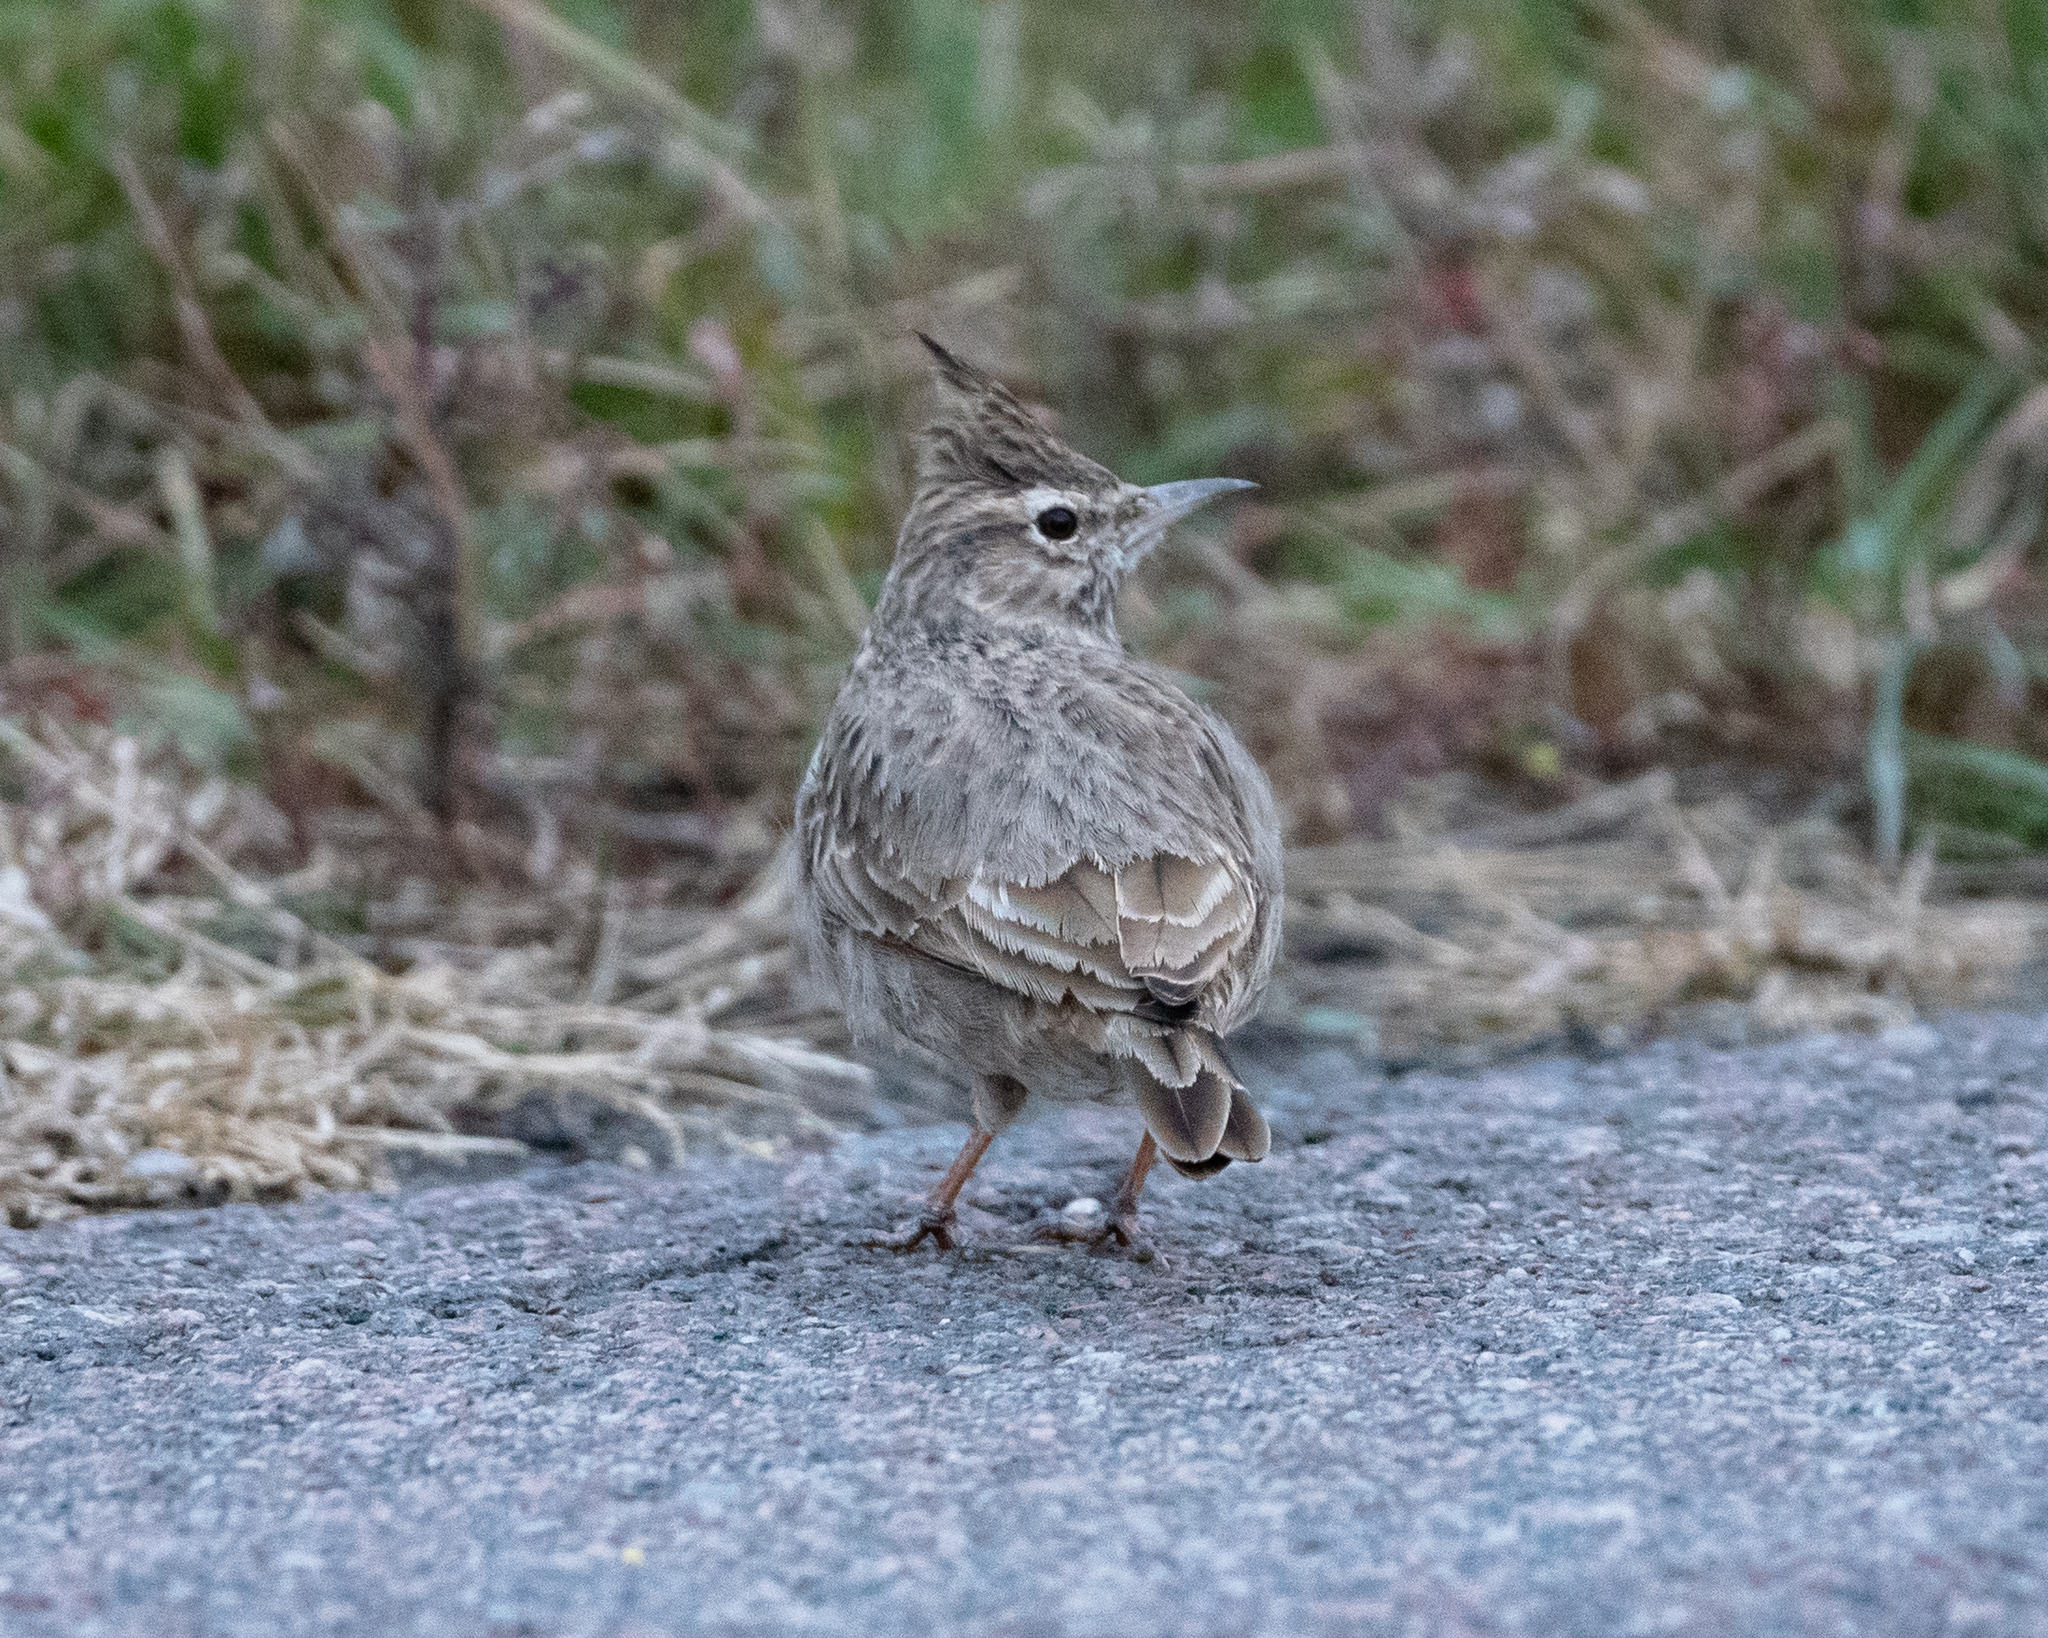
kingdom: Animalia
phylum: Chordata
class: Aves
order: Passeriformes
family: Alaudidae
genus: Galerida
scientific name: Galerida cristata
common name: Crested lark
